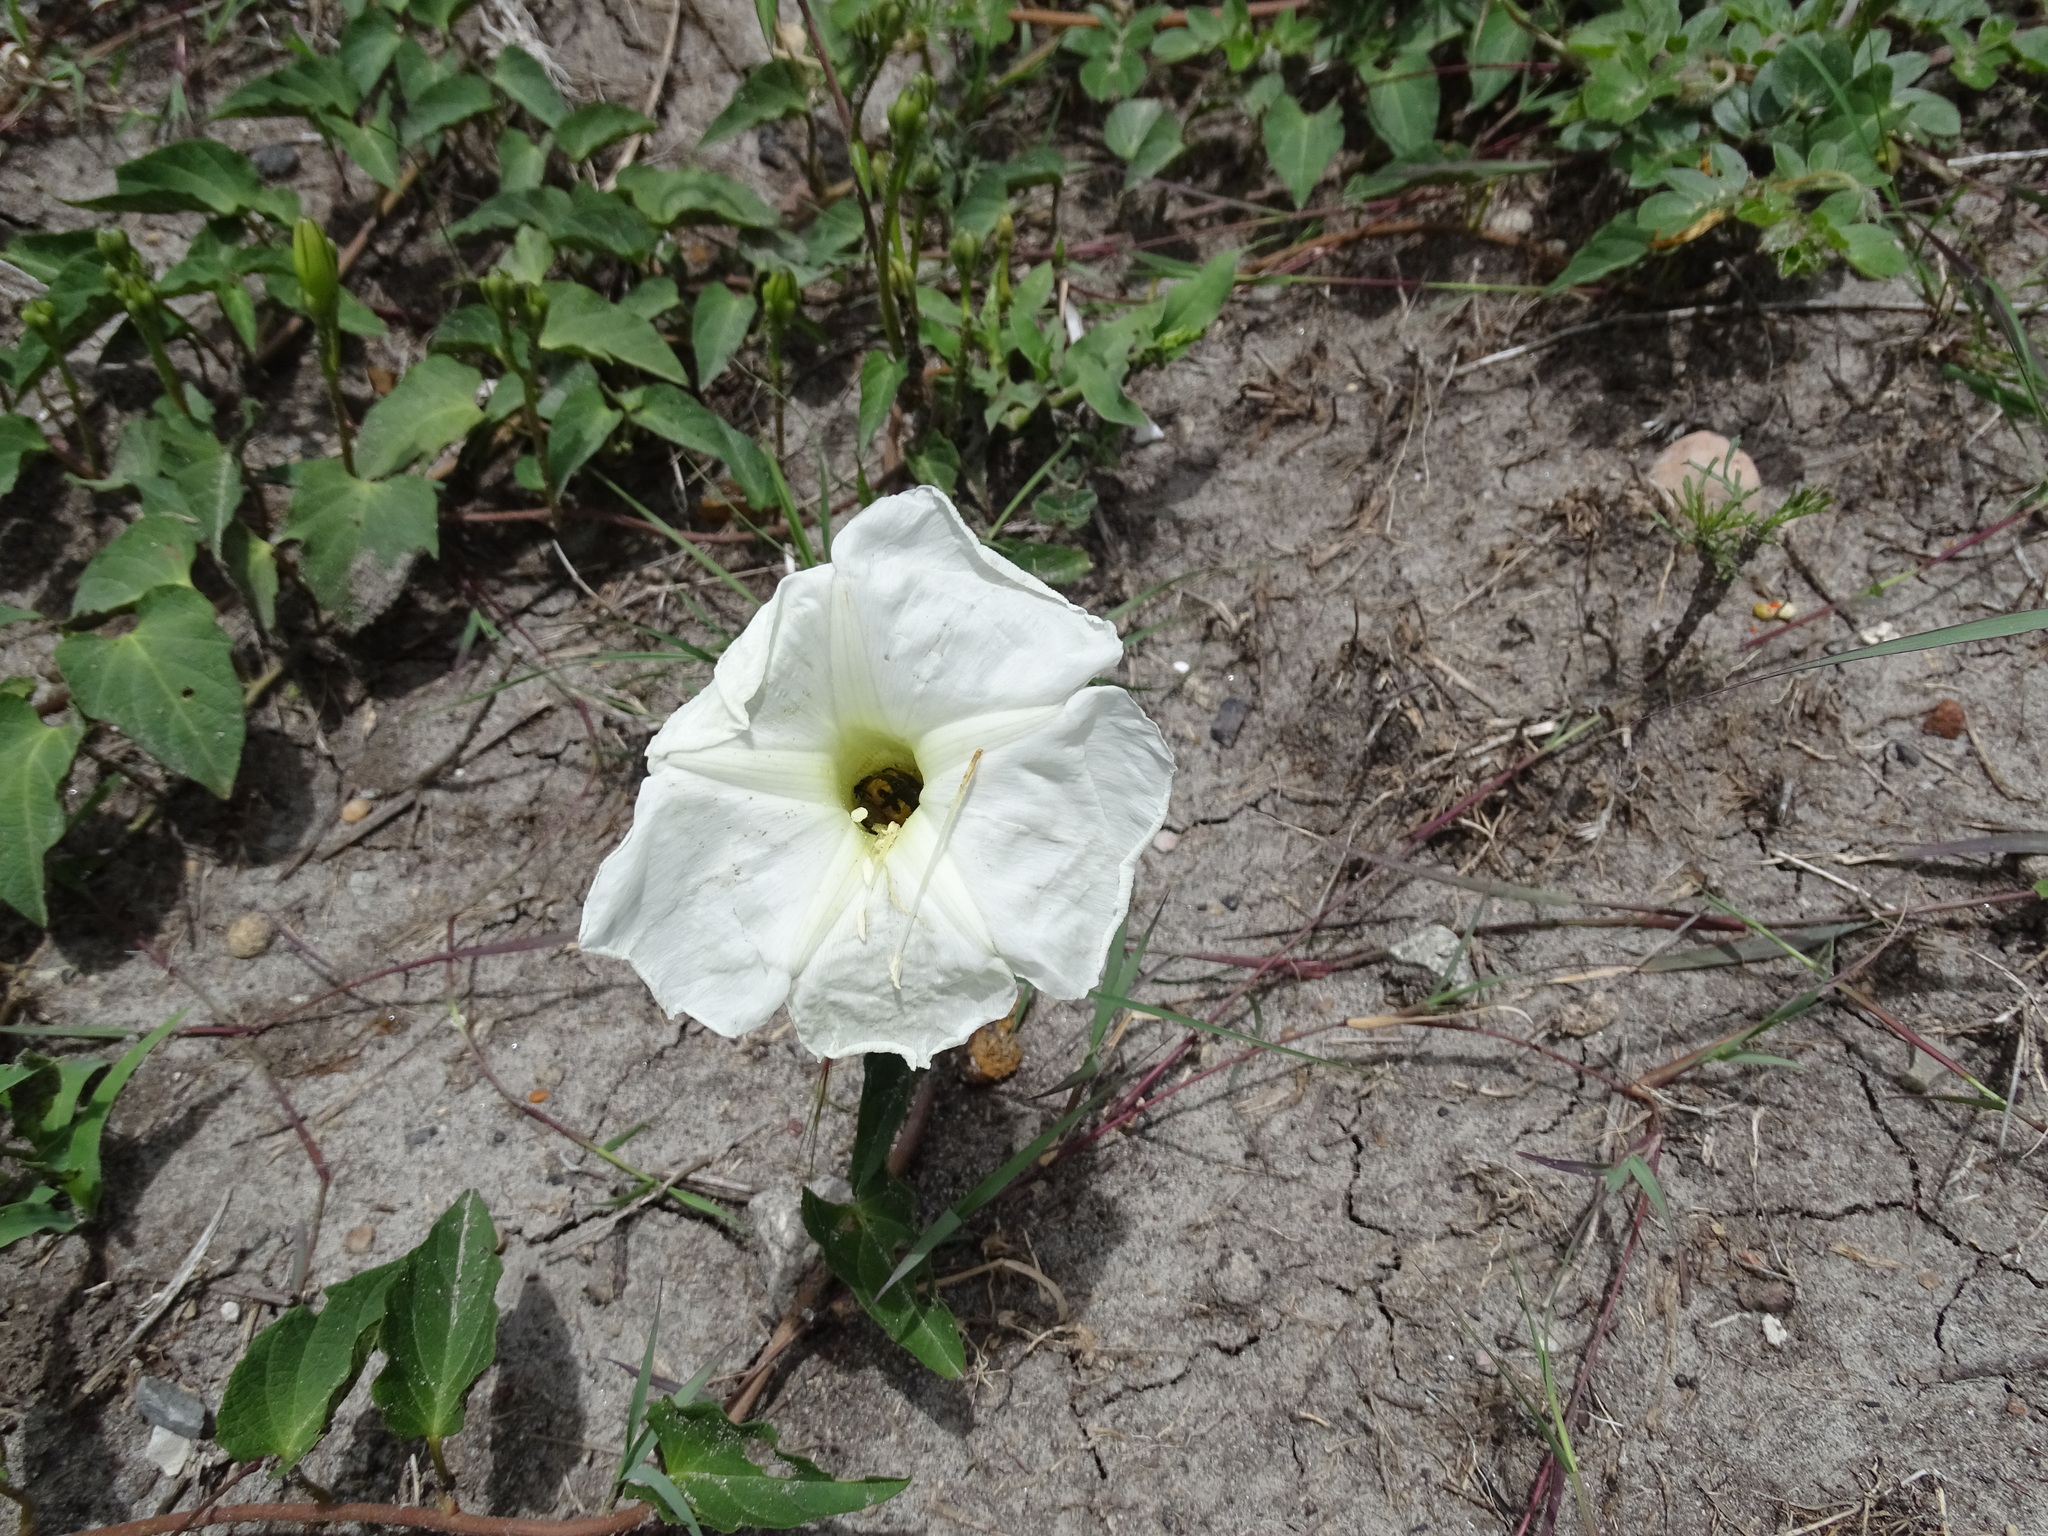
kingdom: Plantae
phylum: Tracheophyta
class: Magnoliopsida
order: Solanales
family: Convolvulaceae
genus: Ipomoea
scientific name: Ipomoea proxima
